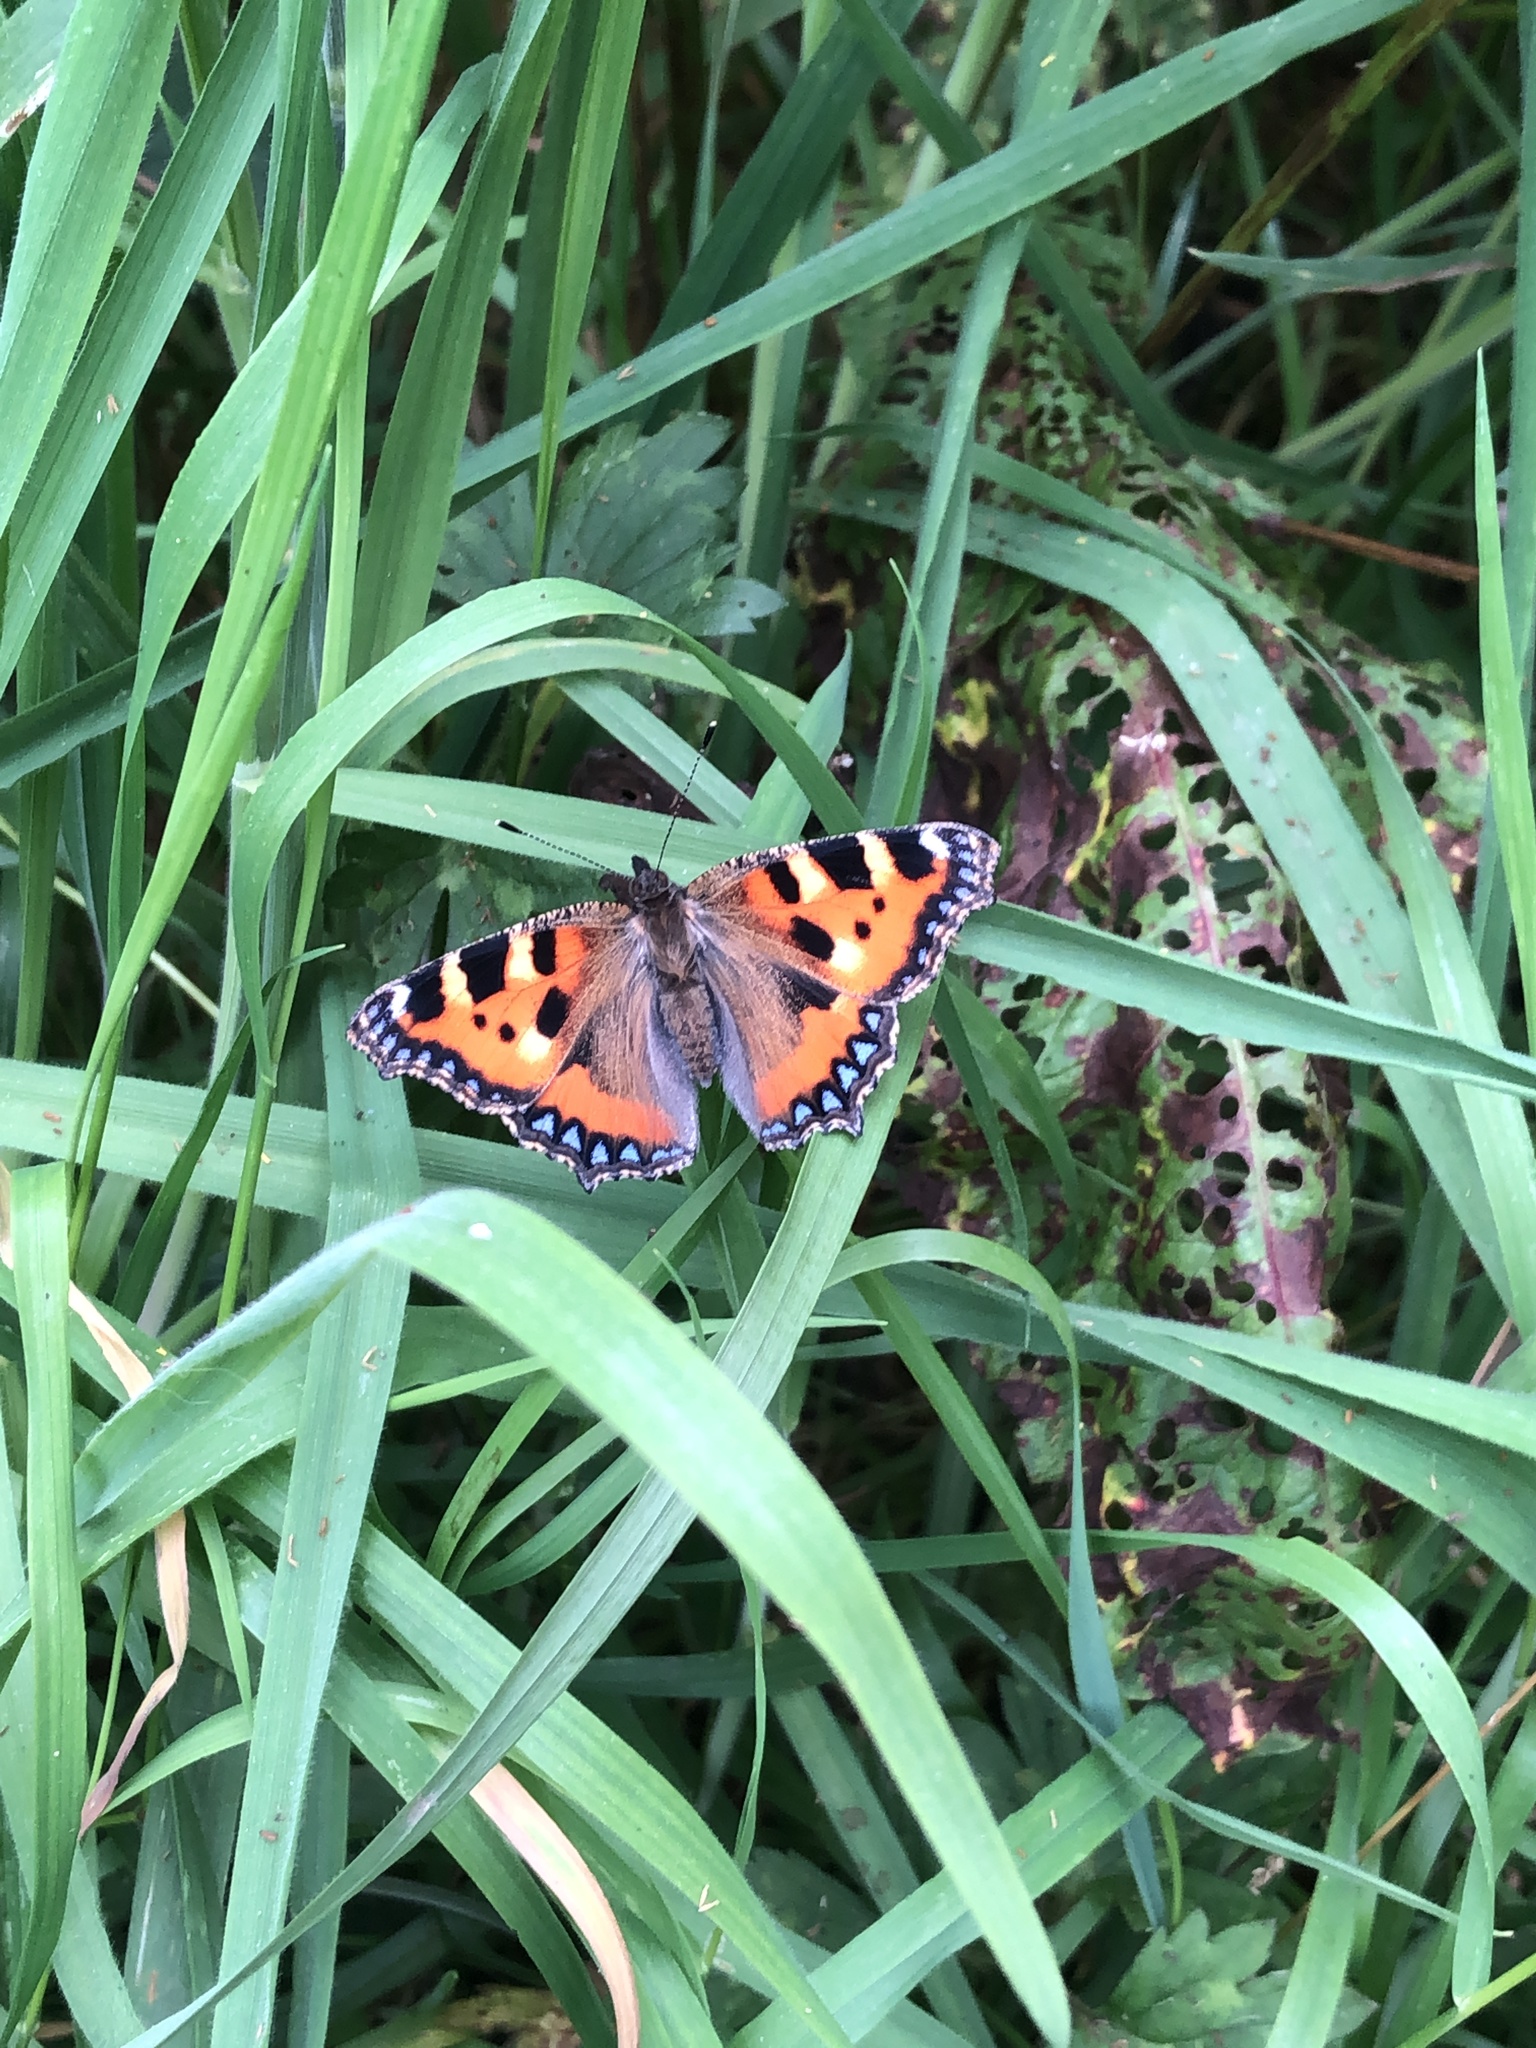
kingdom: Animalia
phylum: Arthropoda
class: Insecta
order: Lepidoptera
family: Nymphalidae
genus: Aglais
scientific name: Aglais urticae
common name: Small tortoiseshell
